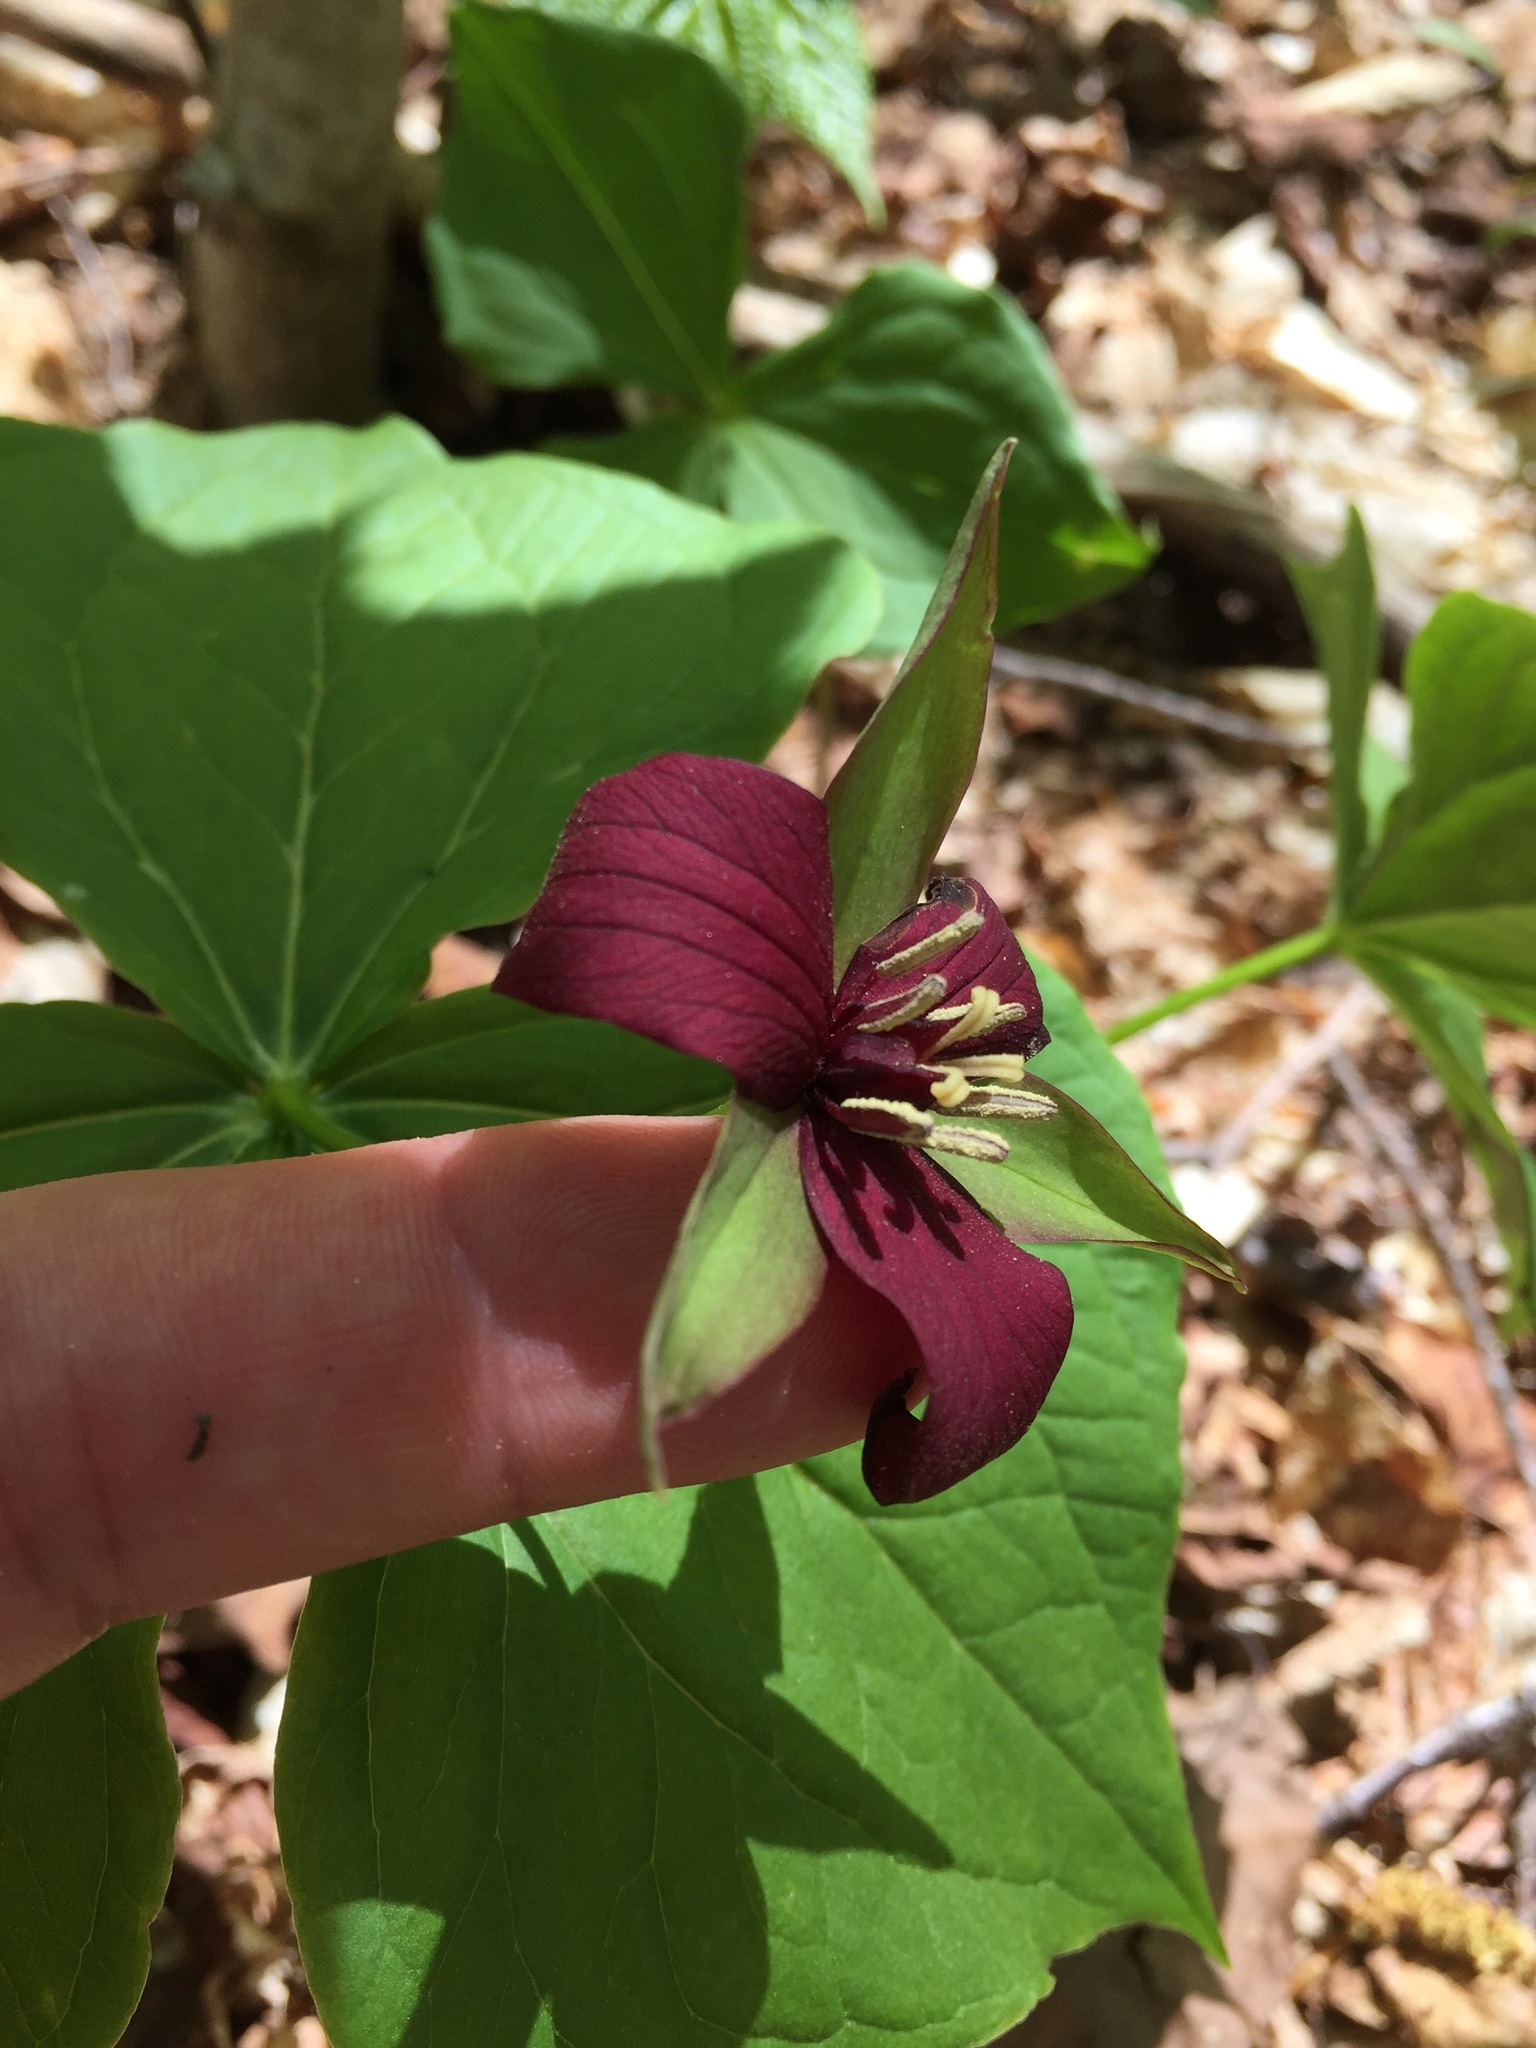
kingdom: Plantae
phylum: Tracheophyta
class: Liliopsida
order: Liliales
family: Melanthiaceae
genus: Trillium
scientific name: Trillium erectum
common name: Purple trillium
